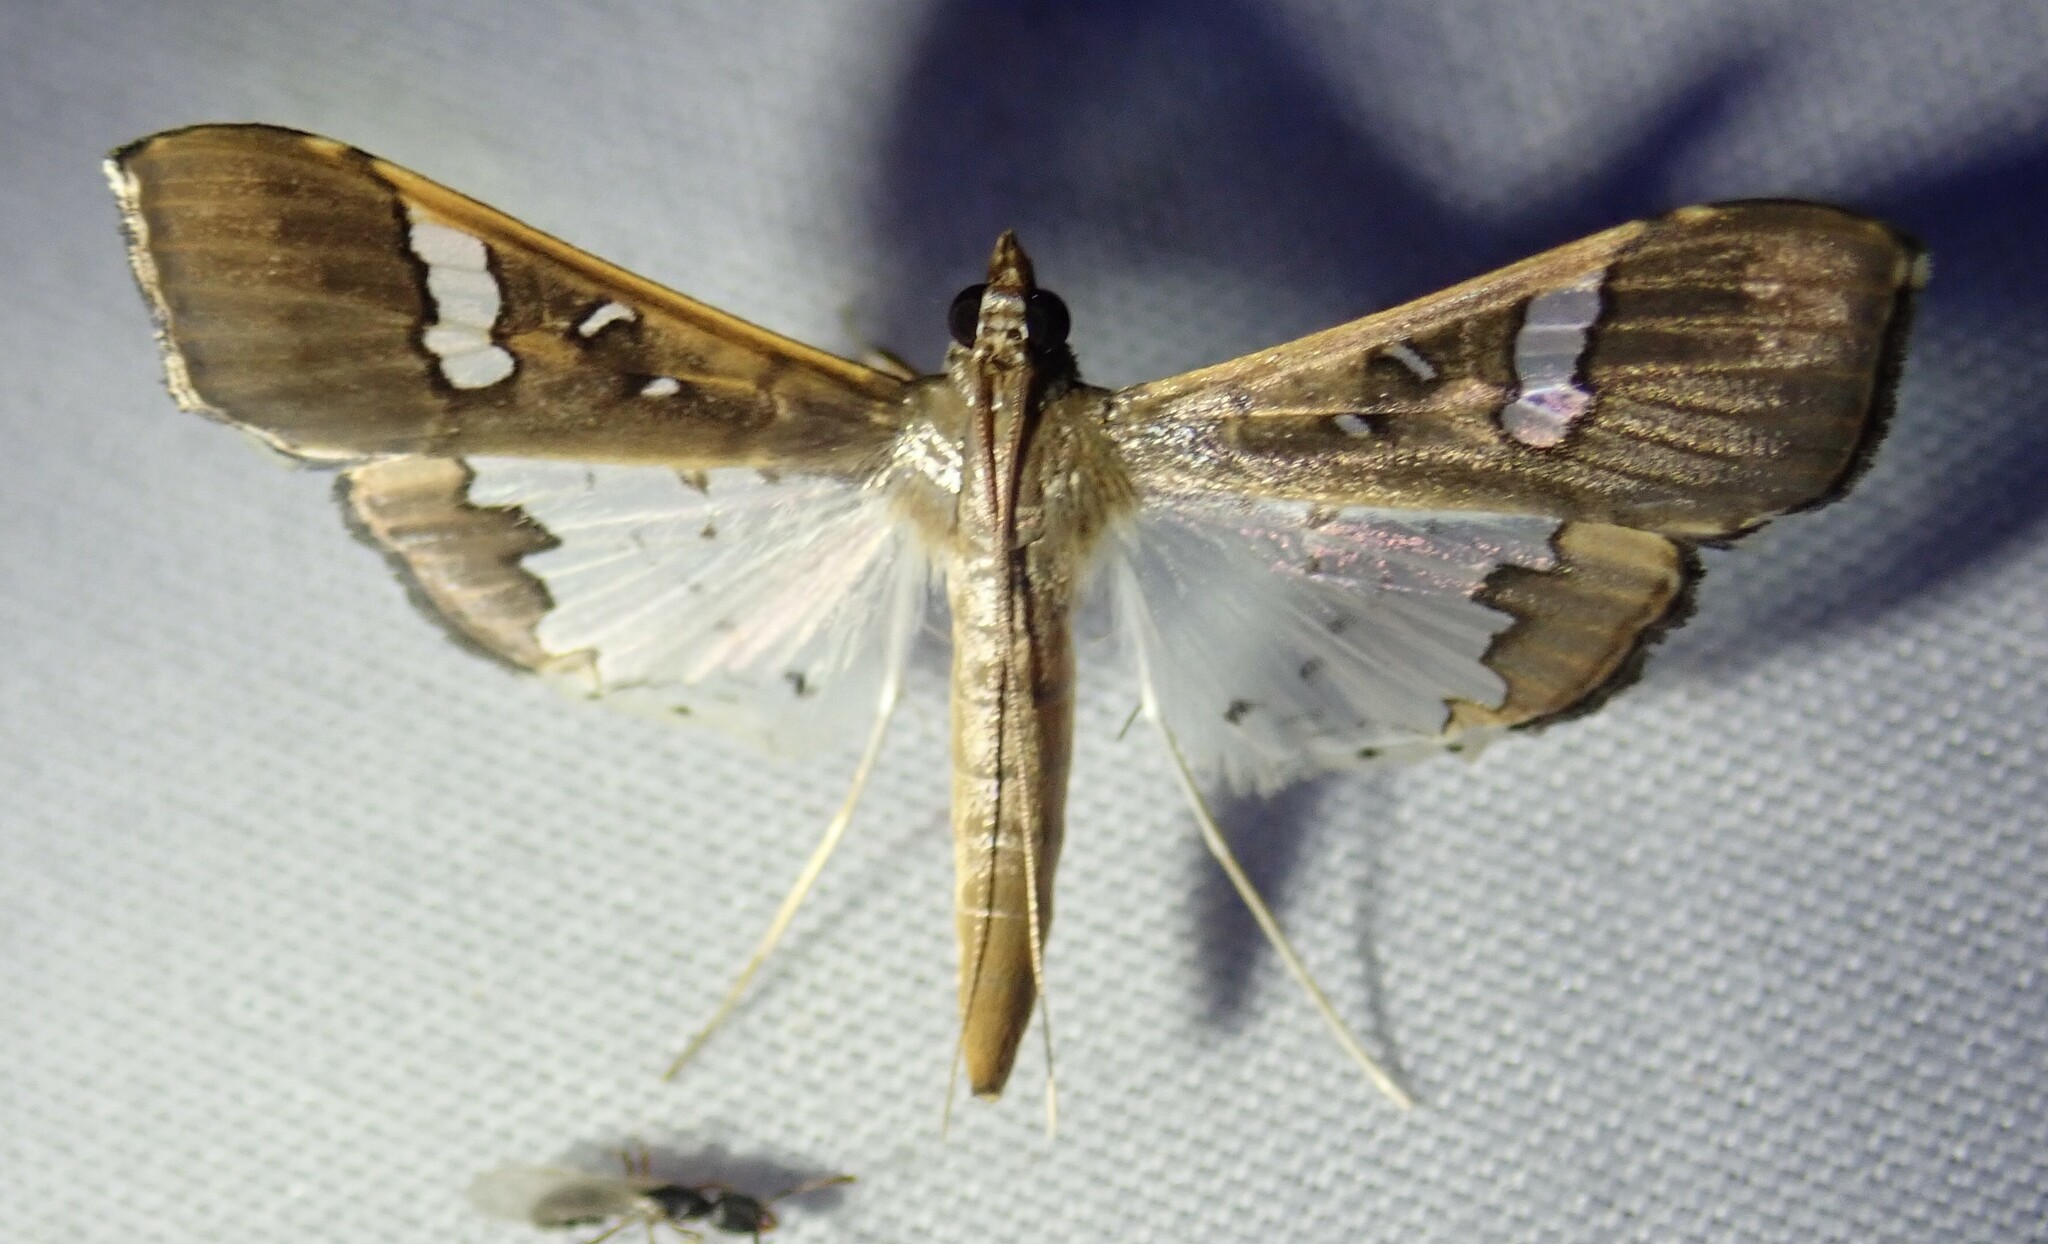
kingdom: Animalia
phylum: Arthropoda
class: Insecta
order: Lepidoptera
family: Crambidae
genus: Maruca
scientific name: Maruca vitrata
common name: Maruca pod borer
